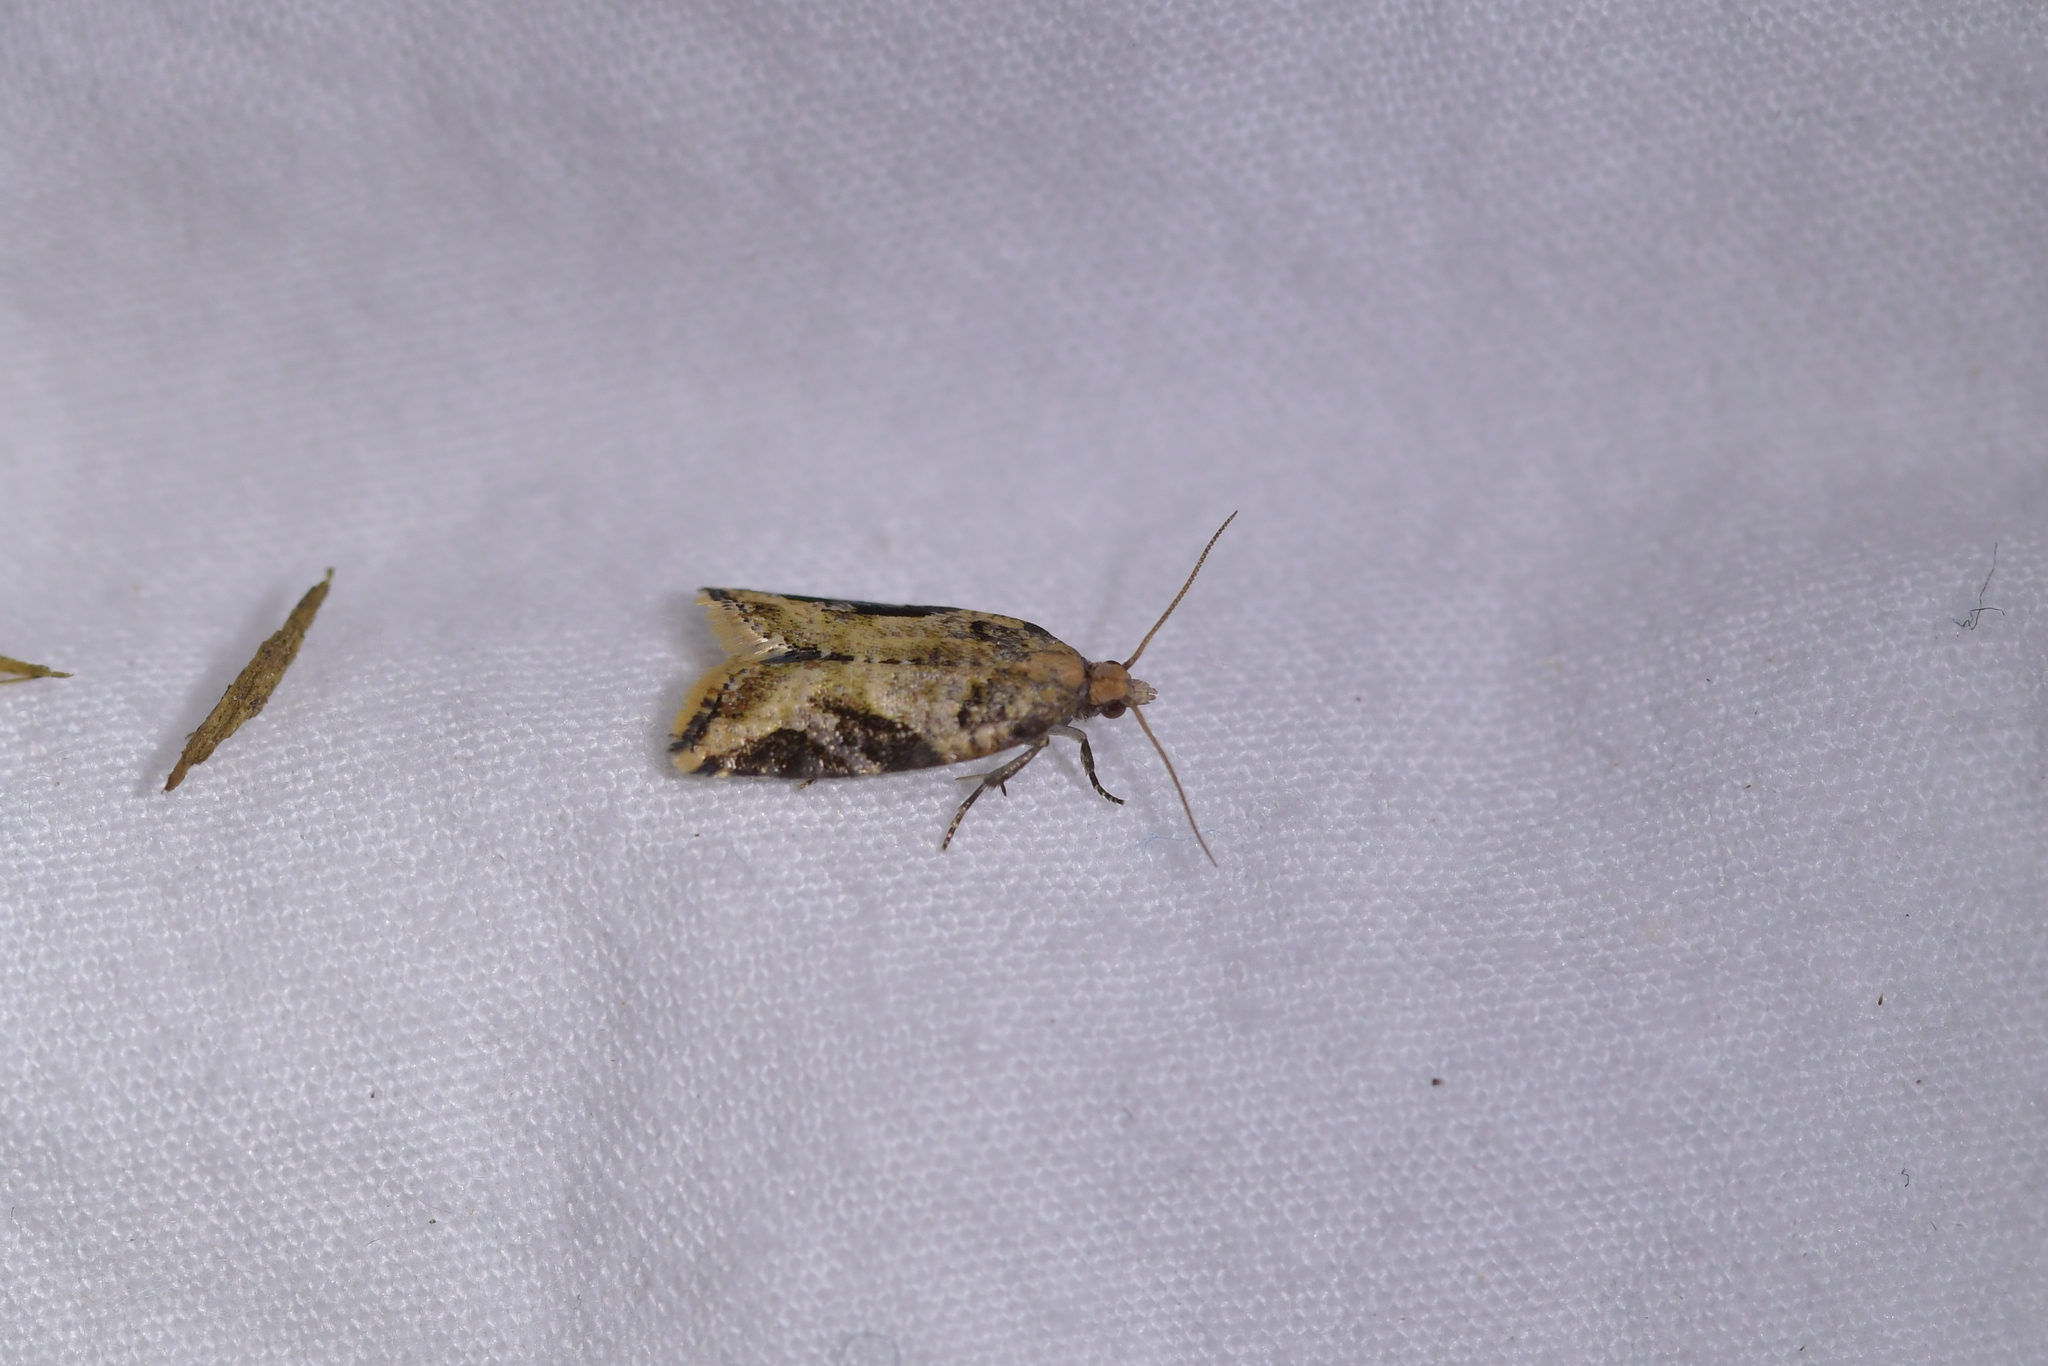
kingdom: Animalia
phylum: Arthropoda
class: Insecta
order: Lepidoptera
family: Tortricidae
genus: Capua
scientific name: Capua semiferana
